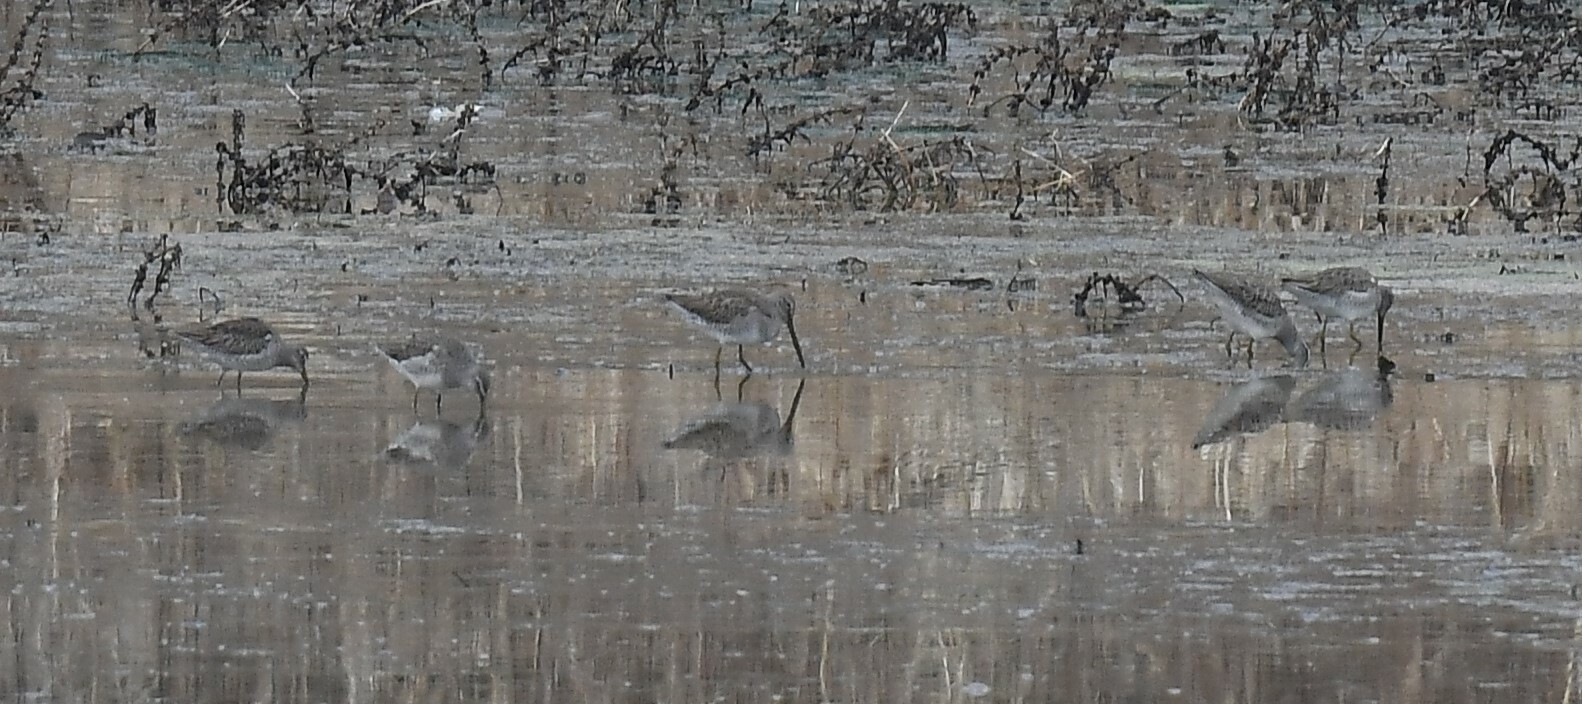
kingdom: Animalia
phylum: Chordata
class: Aves
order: Charadriiformes
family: Scolopacidae
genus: Limnodromus
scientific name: Limnodromus scolopaceus
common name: Long-billed dowitcher
